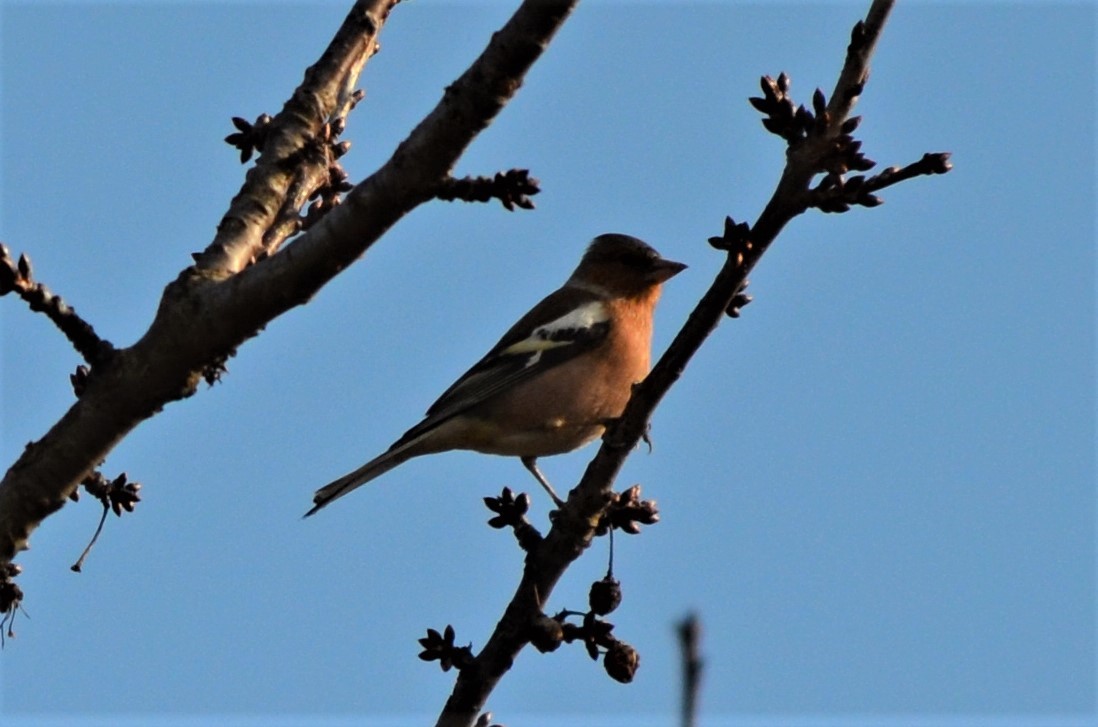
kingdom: Animalia
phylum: Chordata
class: Aves
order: Passeriformes
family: Fringillidae
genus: Fringilla
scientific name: Fringilla coelebs
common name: Common chaffinch
